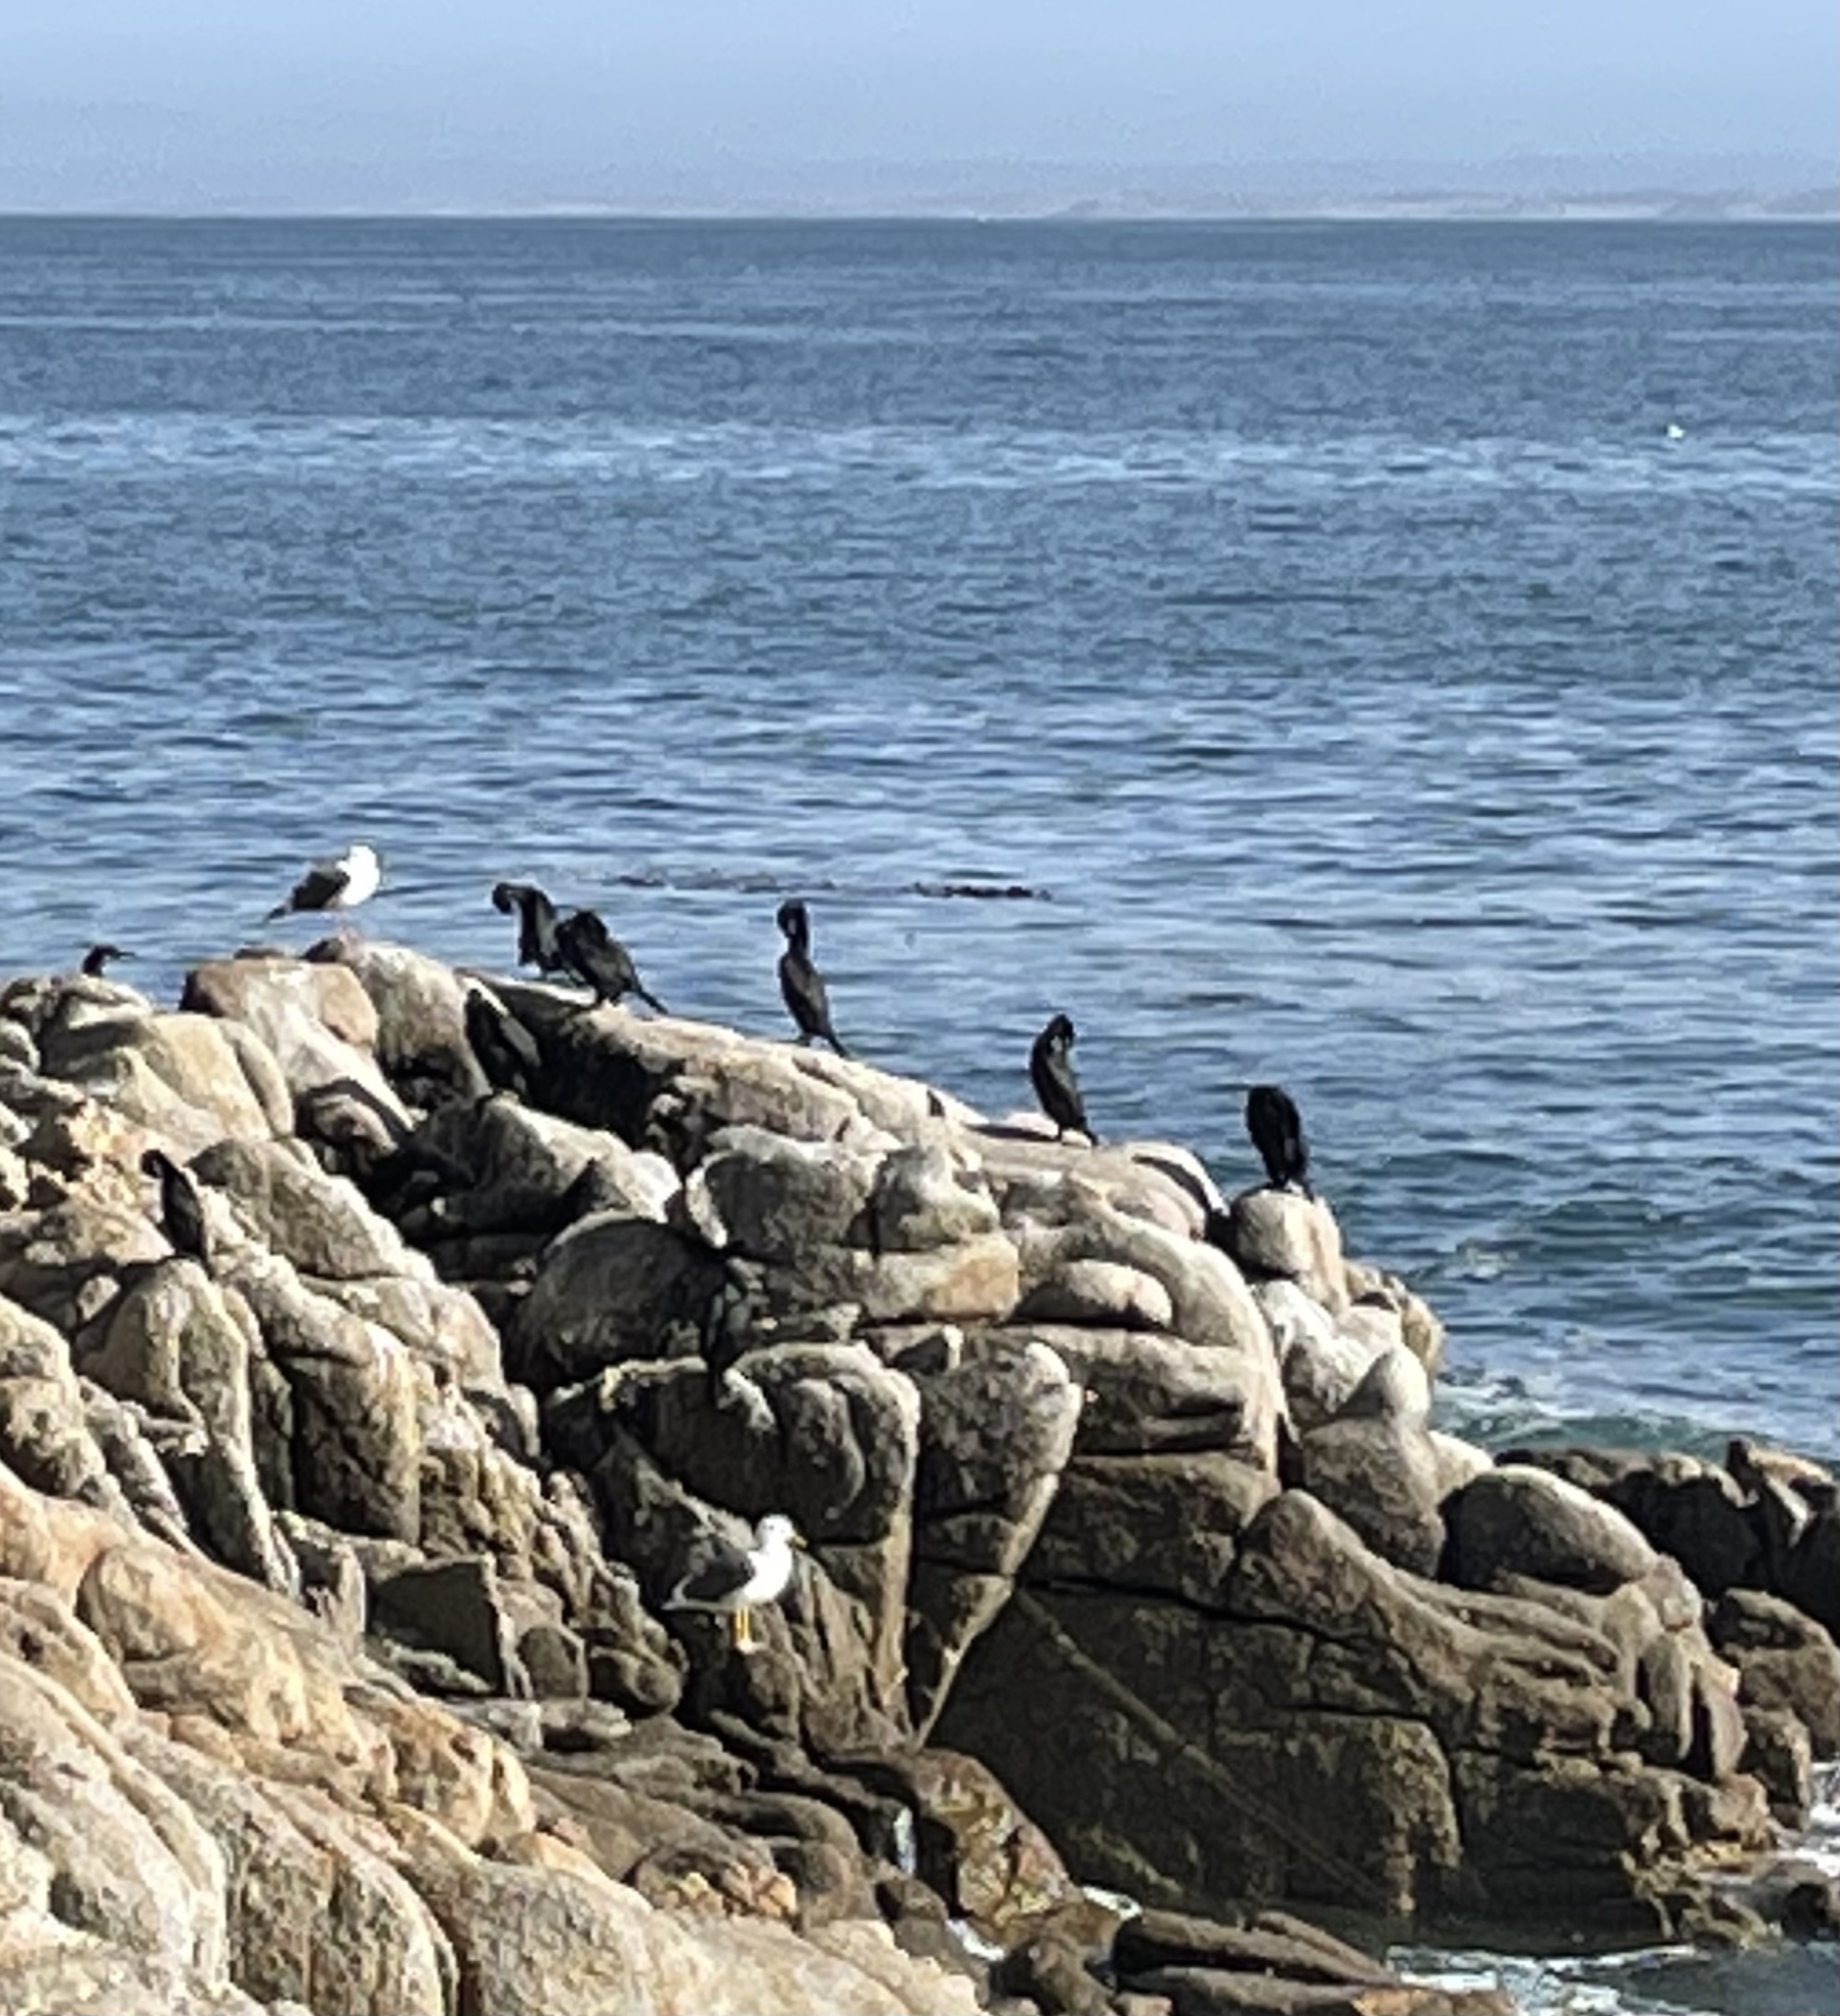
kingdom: Animalia
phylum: Chordata
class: Aves
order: Suliformes
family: Phalacrocoracidae
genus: Urile
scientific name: Urile penicillatus
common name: Brandt's cormorant
